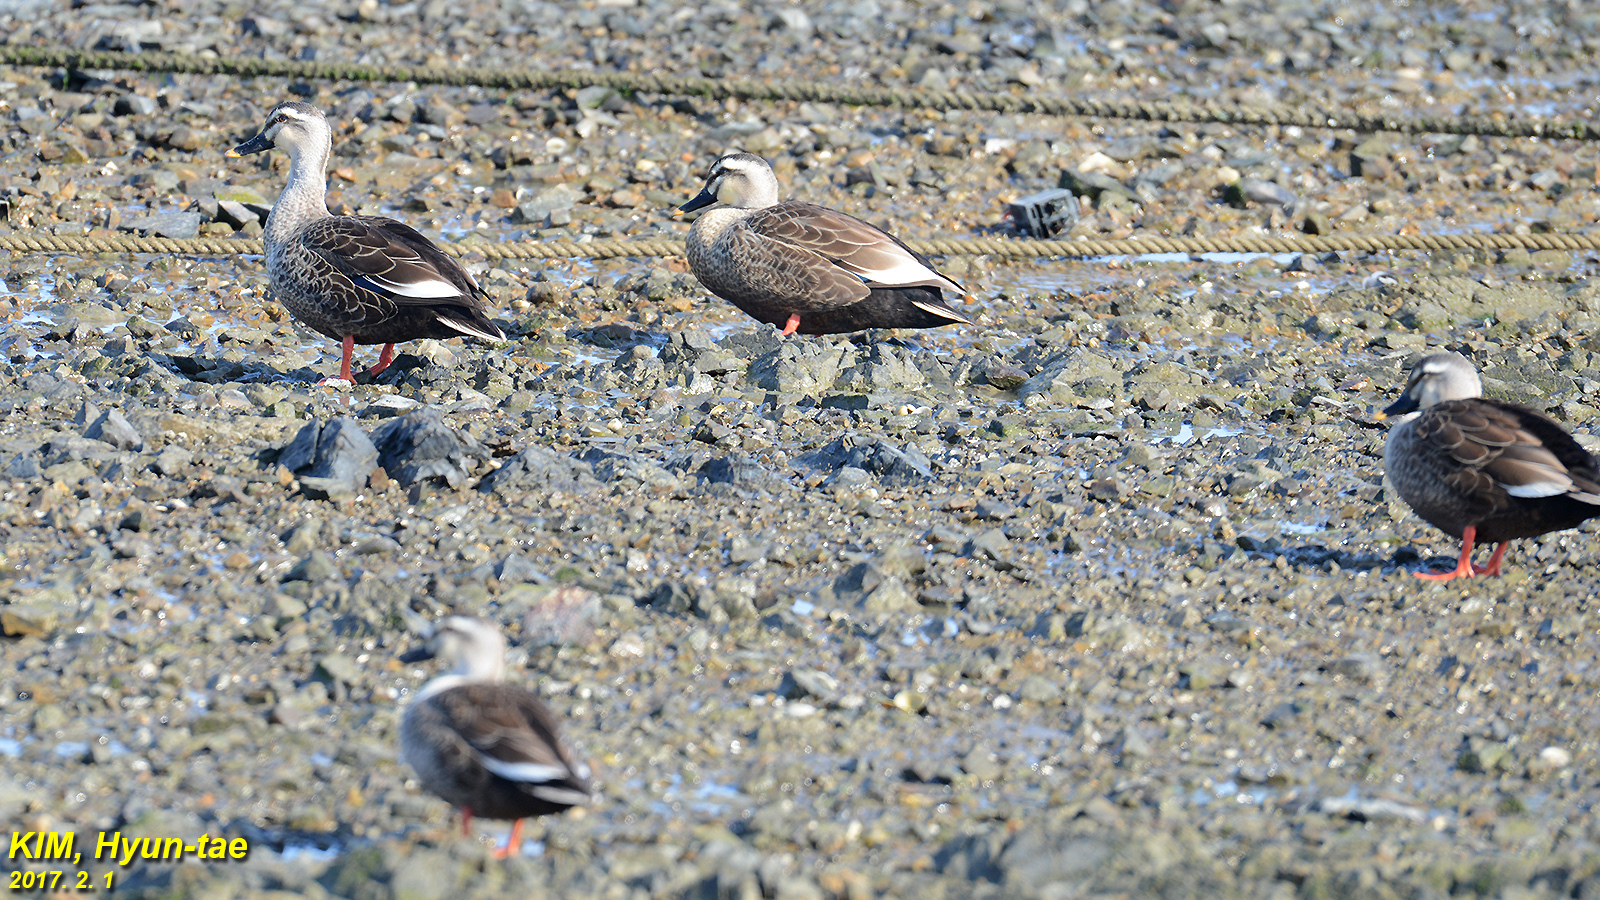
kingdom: Animalia
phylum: Chordata
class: Aves
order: Anseriformes
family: Anatidae
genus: Anas
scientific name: Anas zonorhyncha
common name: Eastern spot-billed duck
